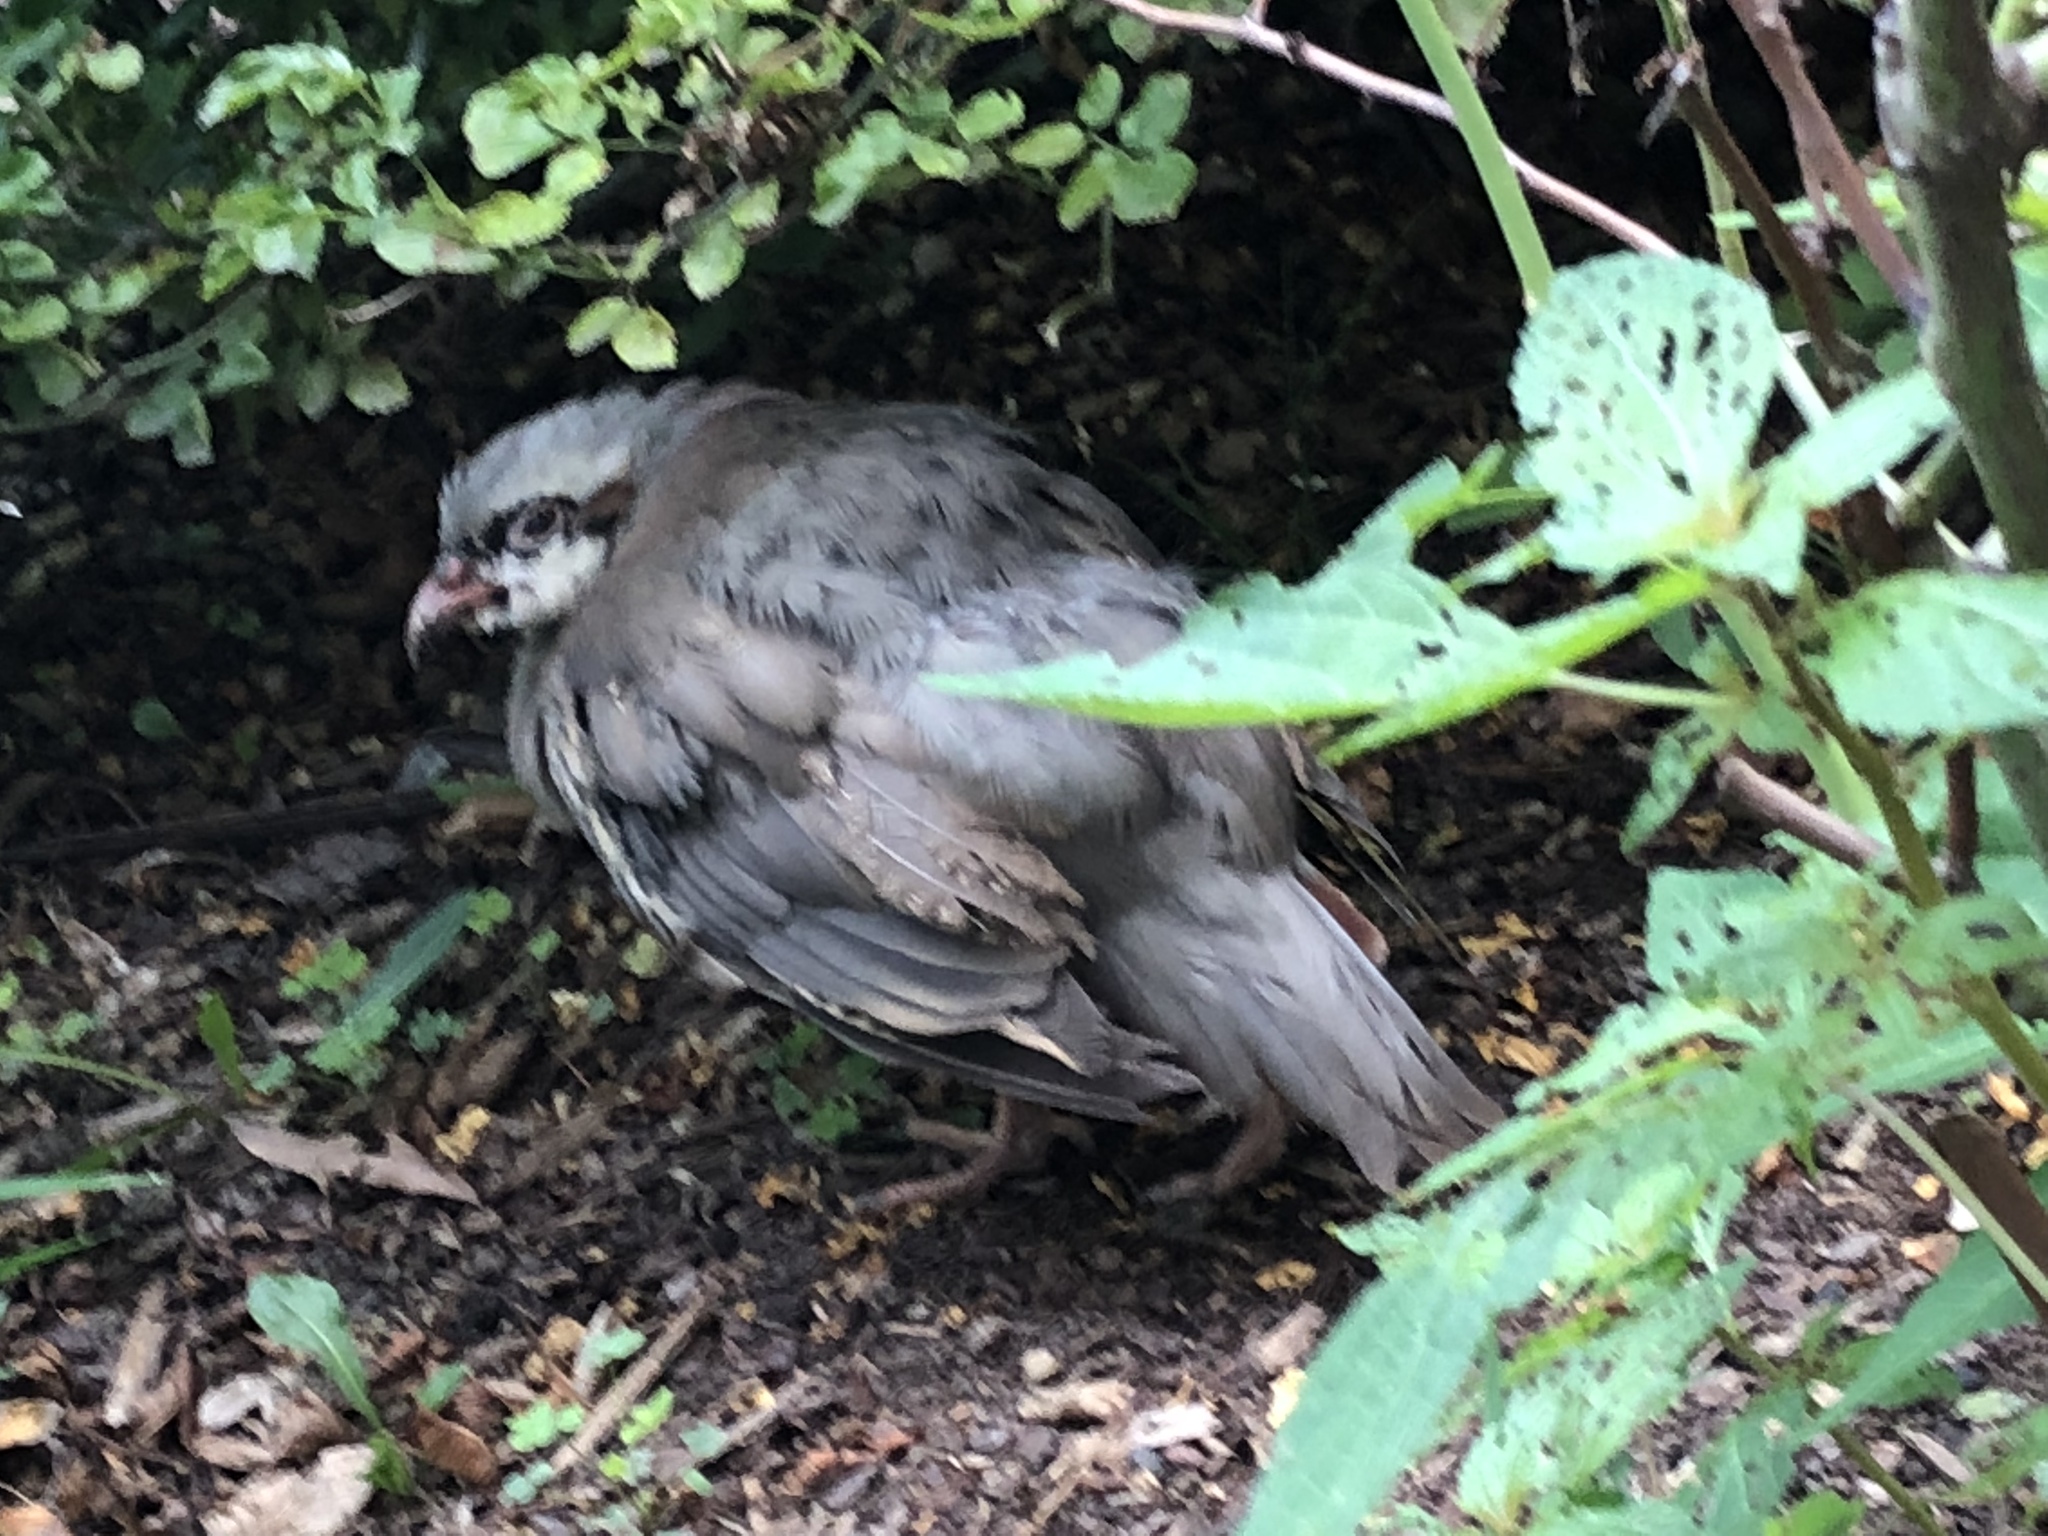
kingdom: Animalia
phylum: Chordata
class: Aves
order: Galliformes
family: Phasianidae
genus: Alectoris
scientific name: Alectoris chukar
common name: Chukar
